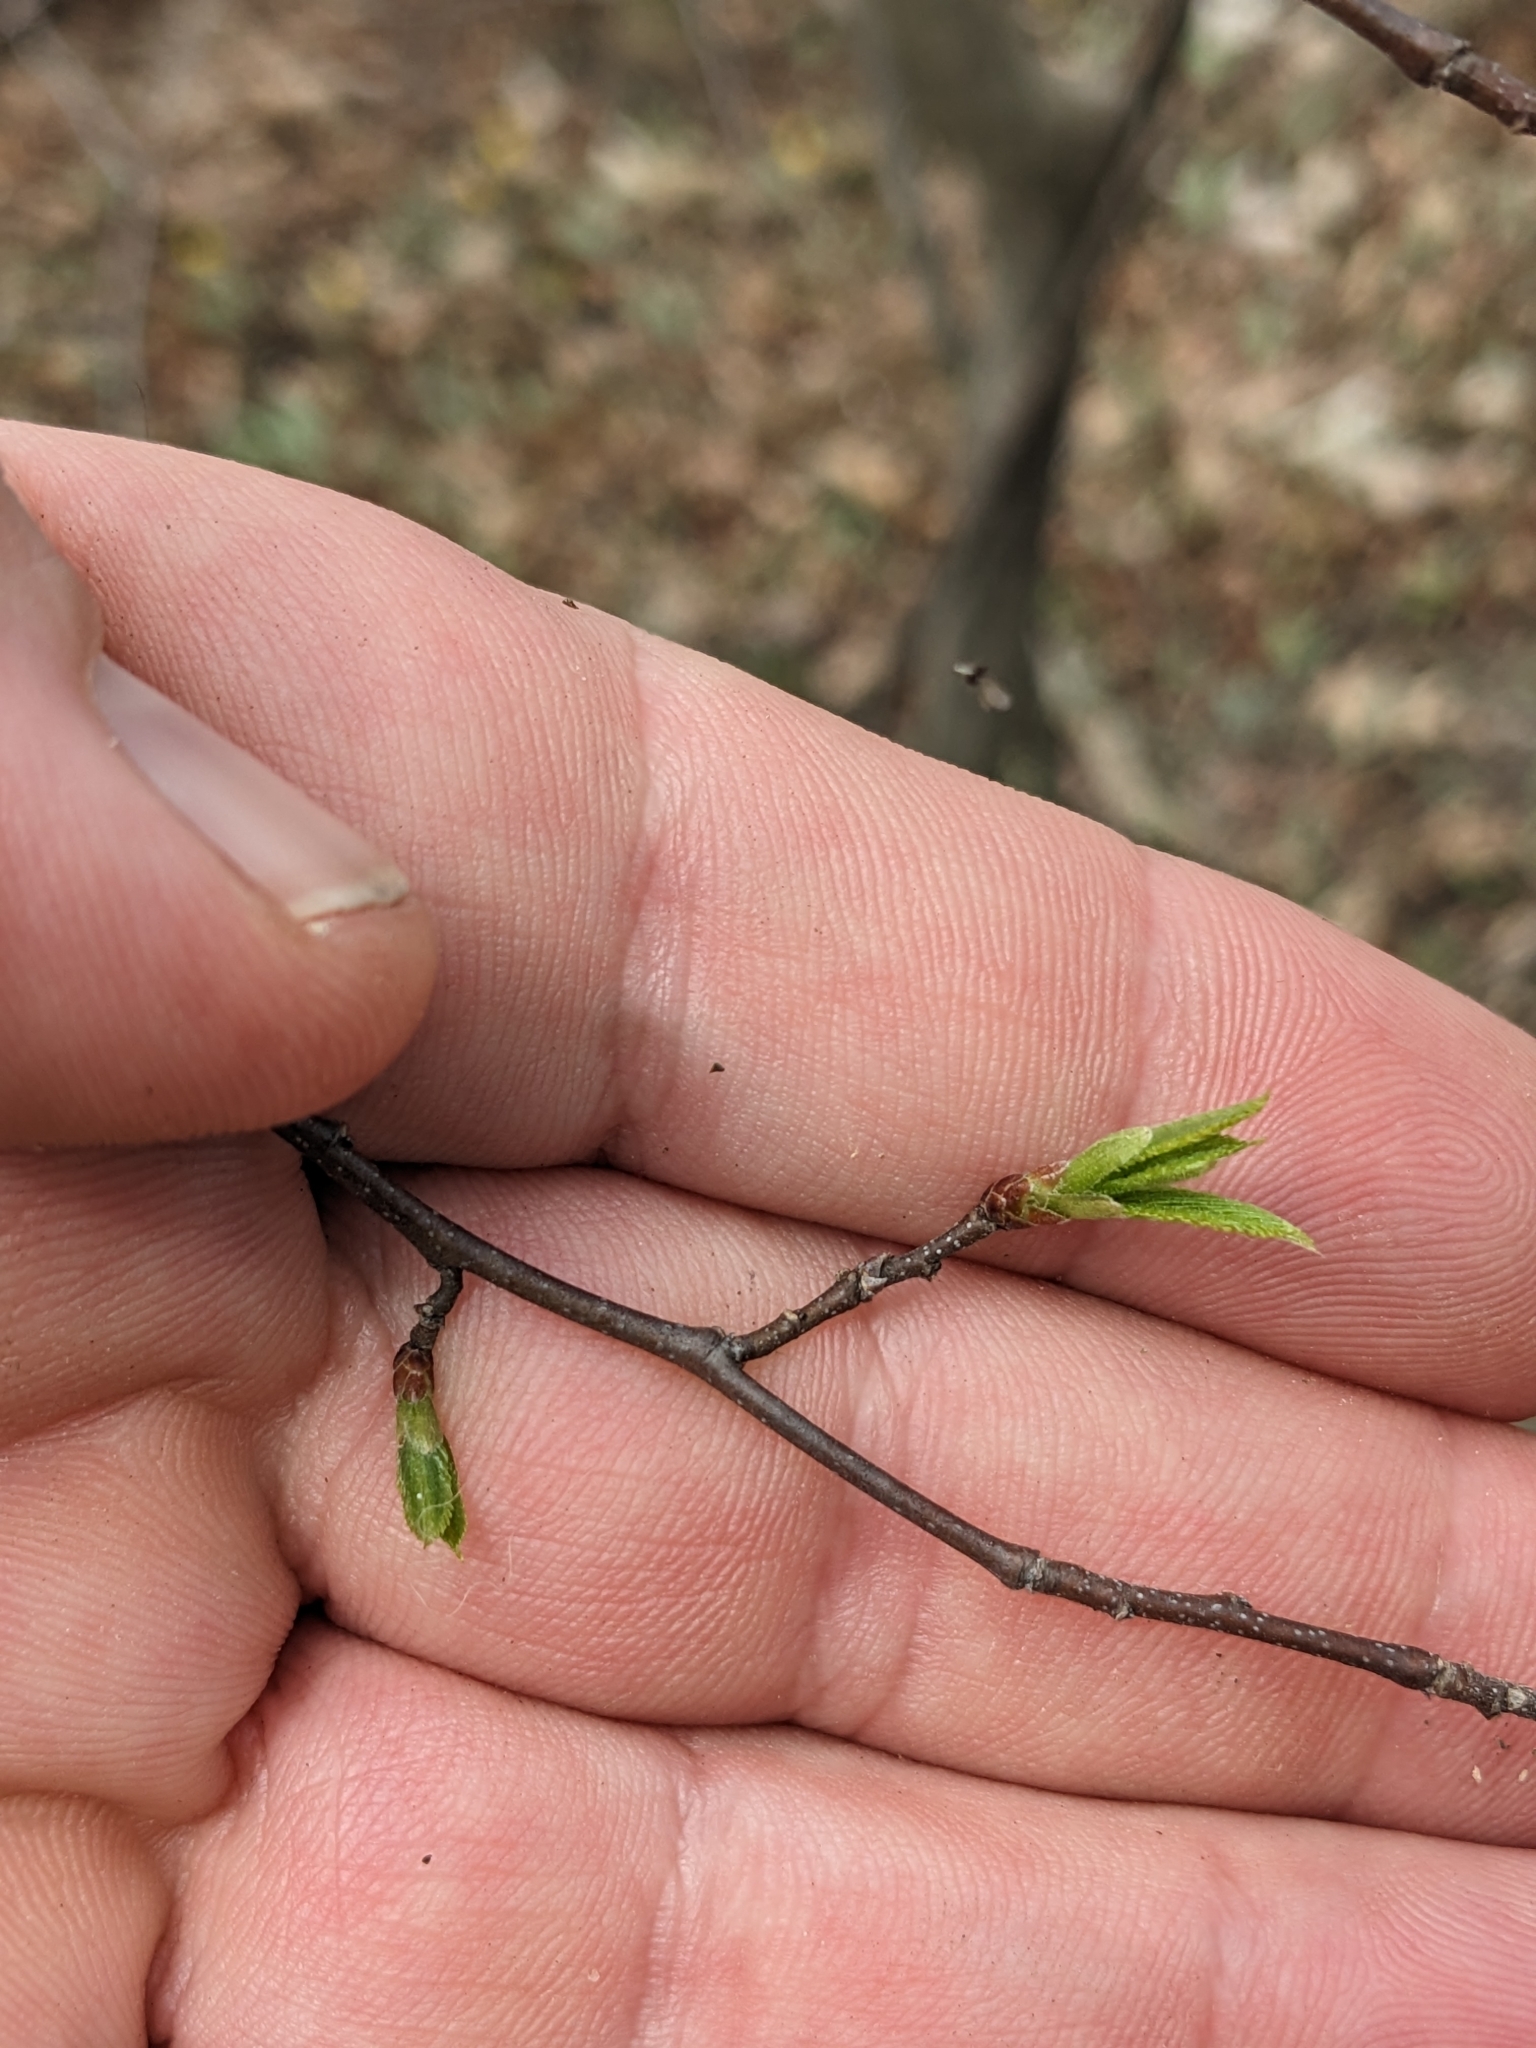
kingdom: Plantae
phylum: Tracheophyta
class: Magnoliopsida
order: Fagales
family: Betulaceae
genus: Carpinus
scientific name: Carpinus caroliniana
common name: American hornbeam
